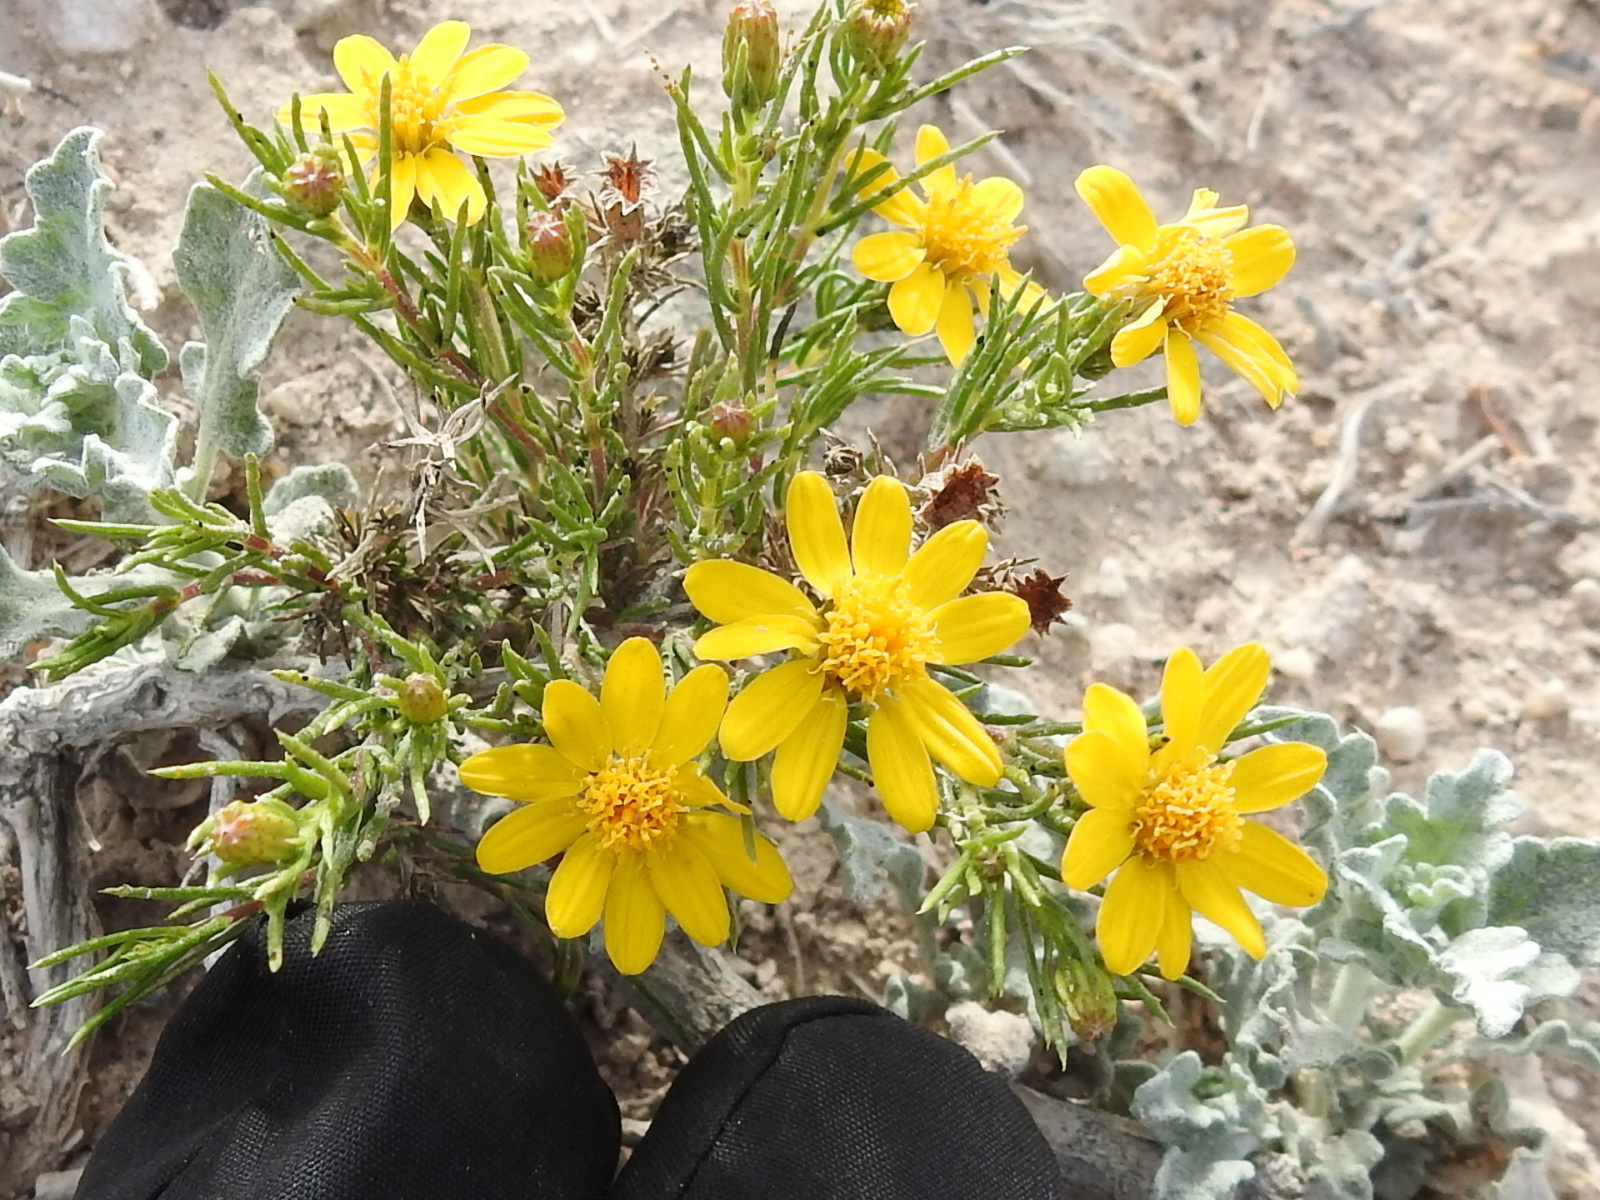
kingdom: Plantae
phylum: Tracheophyta
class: Magnoliopsida
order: Asterales
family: Asteraceae
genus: Thymophylla
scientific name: Thymophylla acerosa
